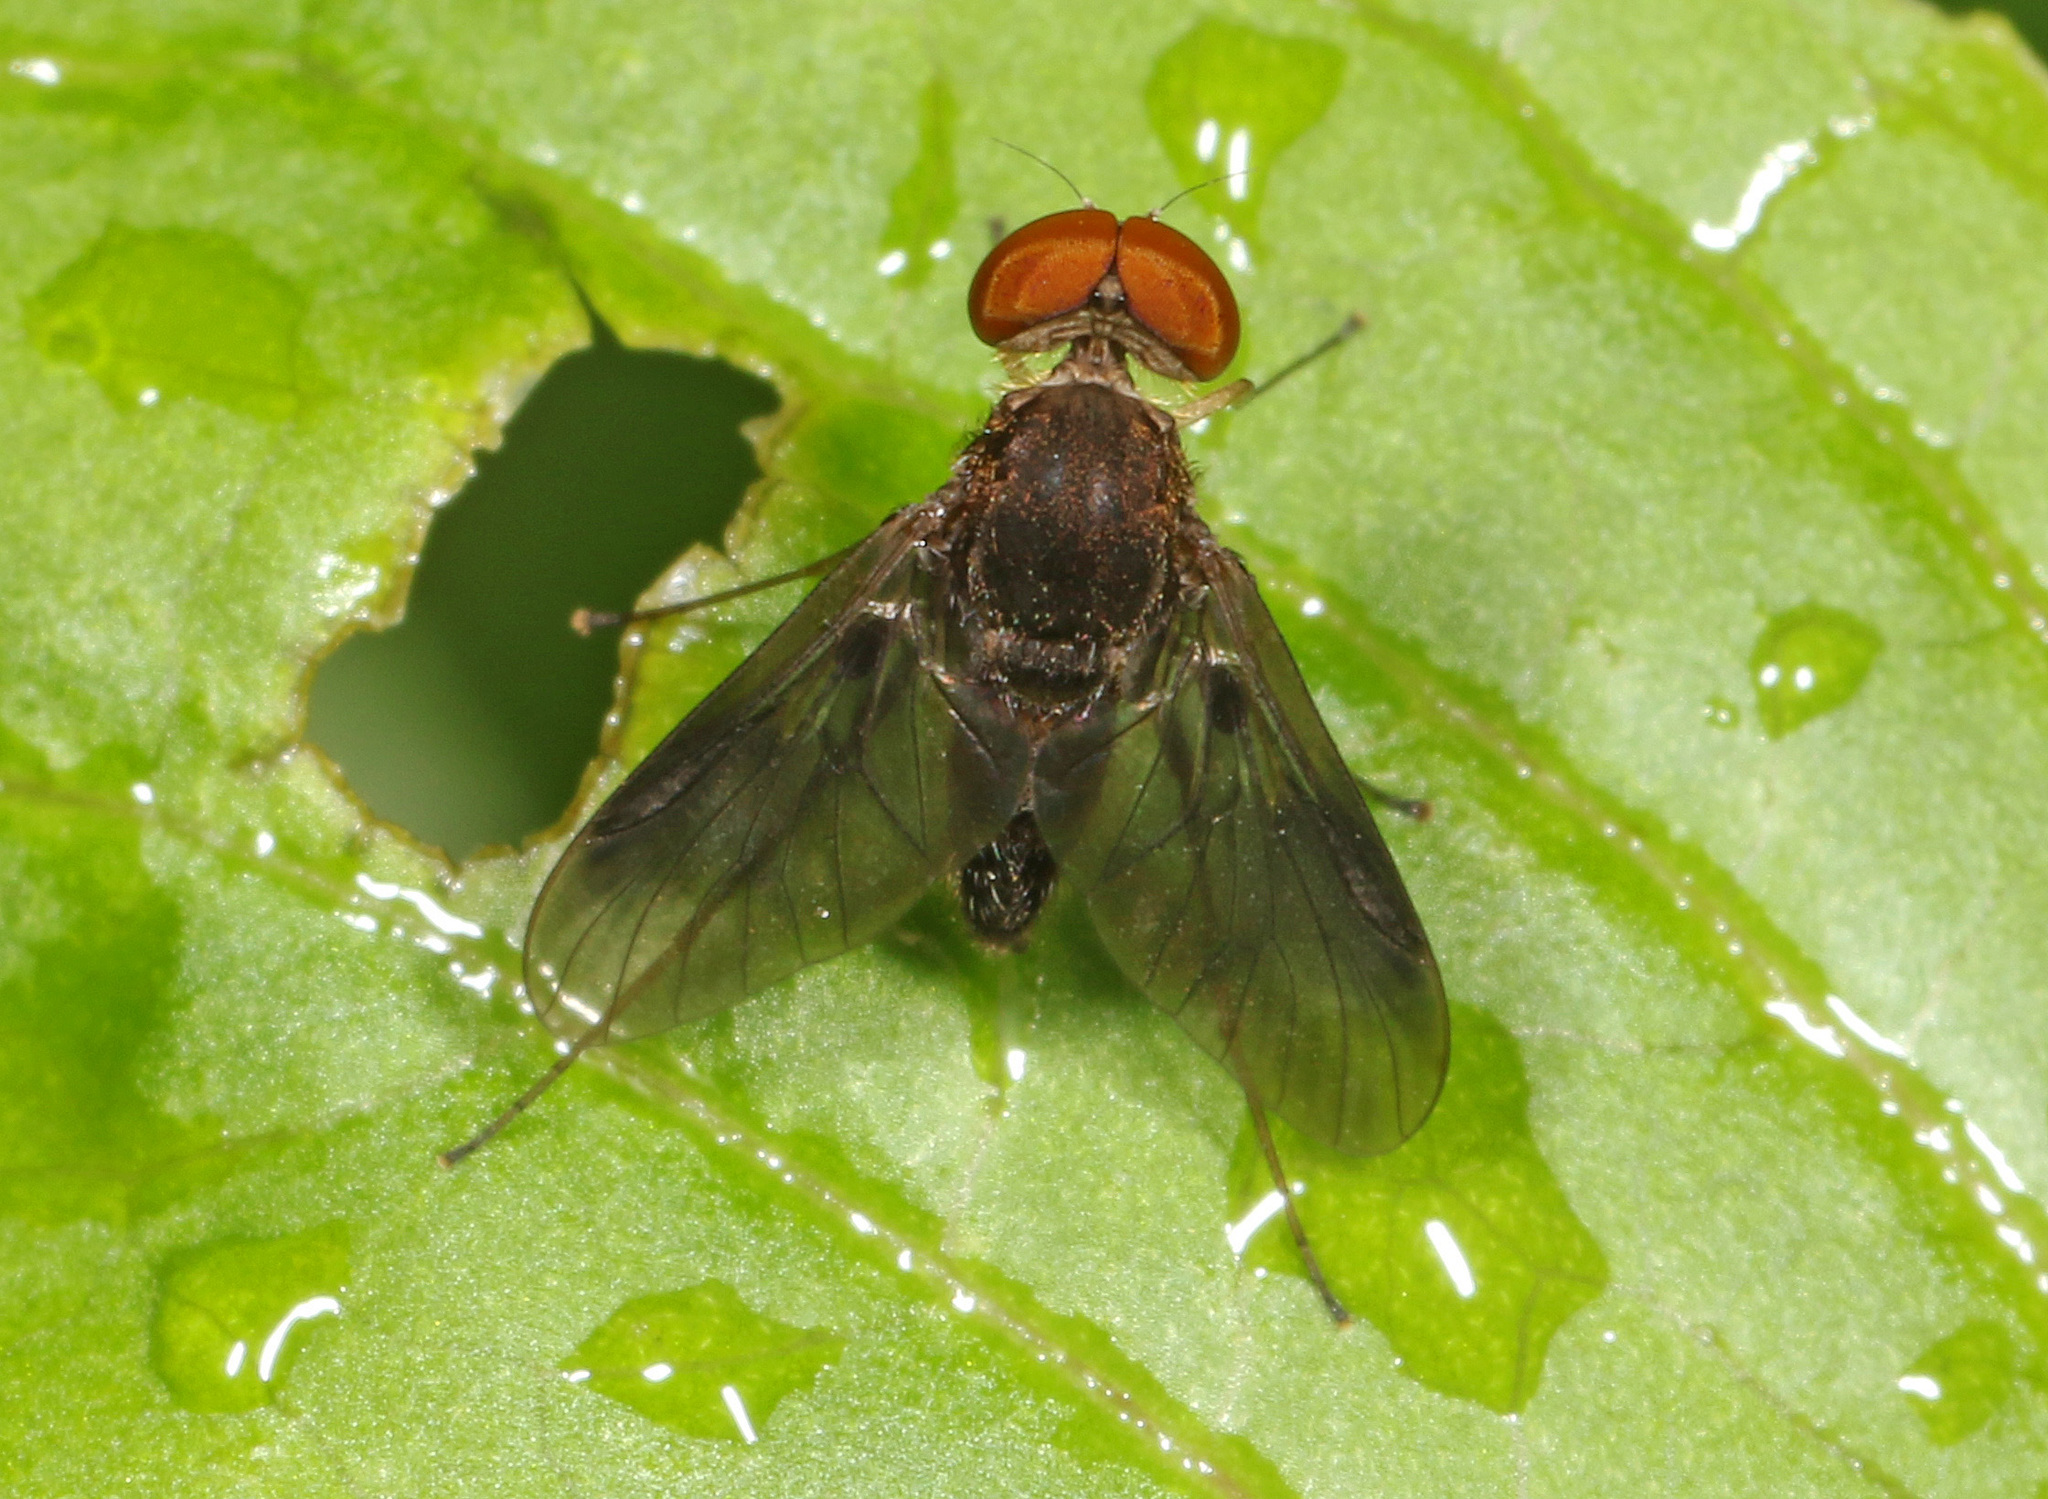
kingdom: Animalia
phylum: Arthropoda
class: Insecta
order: Diptera
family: Rhagionidae
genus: Chrysopilus
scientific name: Chrysopilus quadratus
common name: Quadrate snipe fly
